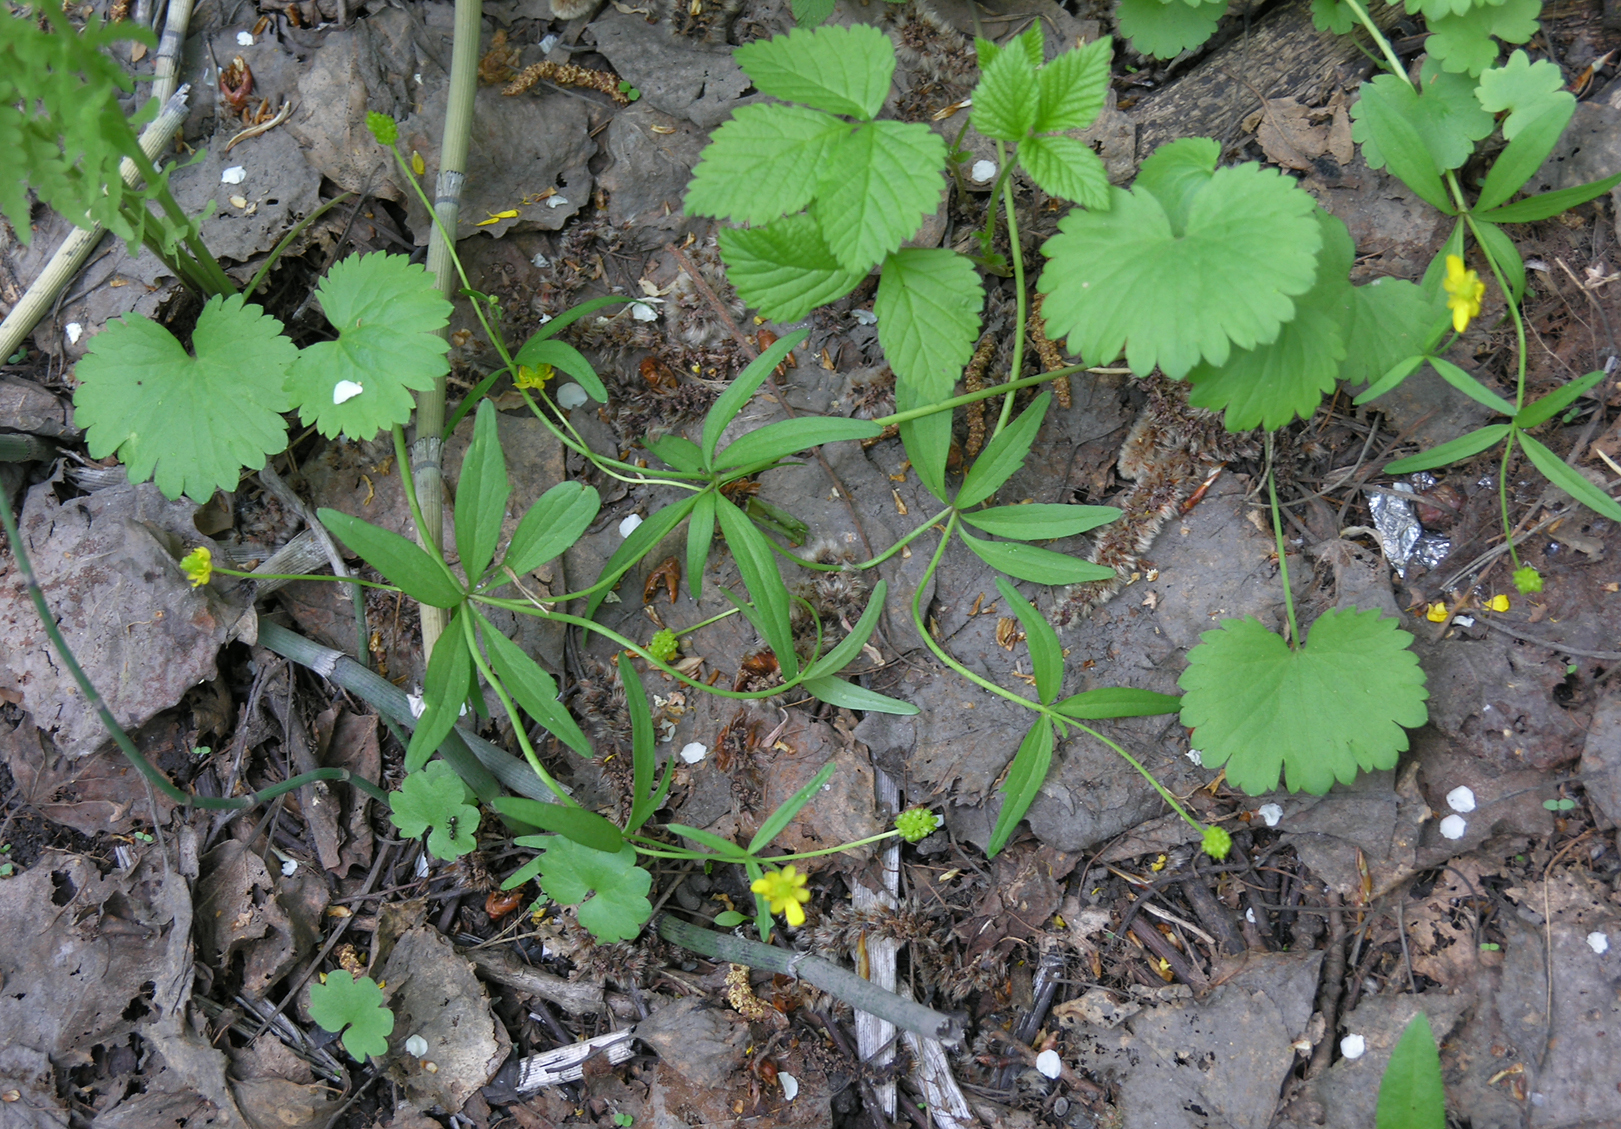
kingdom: Plantae
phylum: Tracheophyta
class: Magnoliopsida
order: Ranunculales
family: Ranunculaceae
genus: Ranunculus
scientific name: Ranunculus monophyllus
